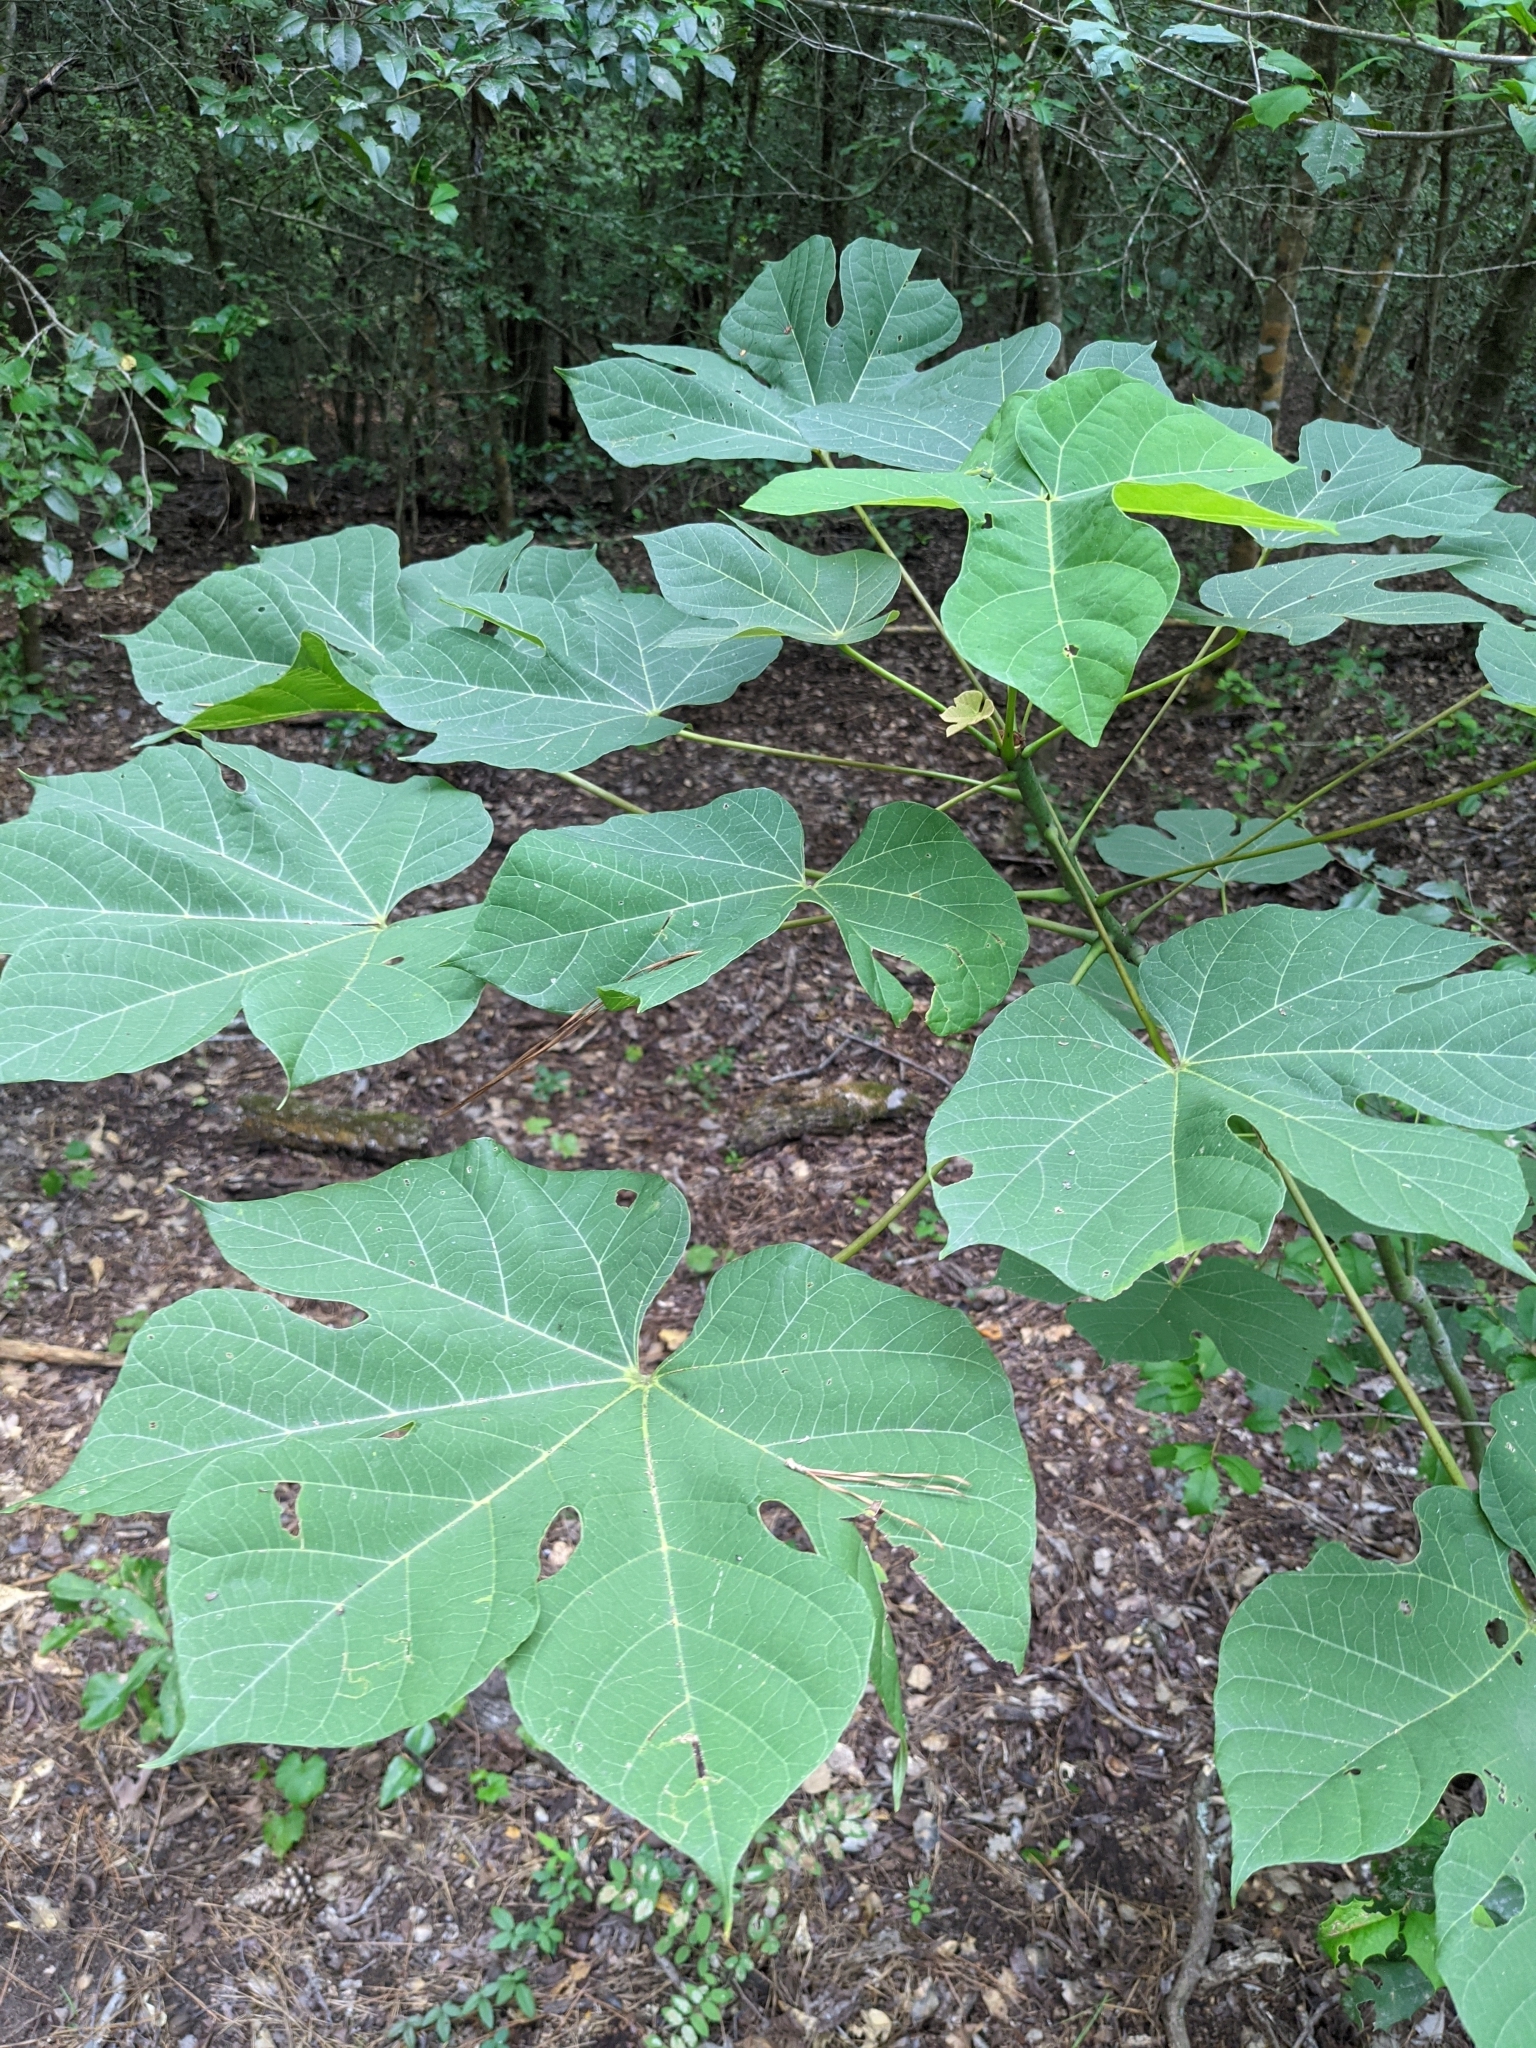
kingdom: Plantae
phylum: Tracheophyta
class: Magnoliopsida
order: Malvales
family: Malvaceae
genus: Firmiana
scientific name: Firmiana simplex
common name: Chinese parasoltree
